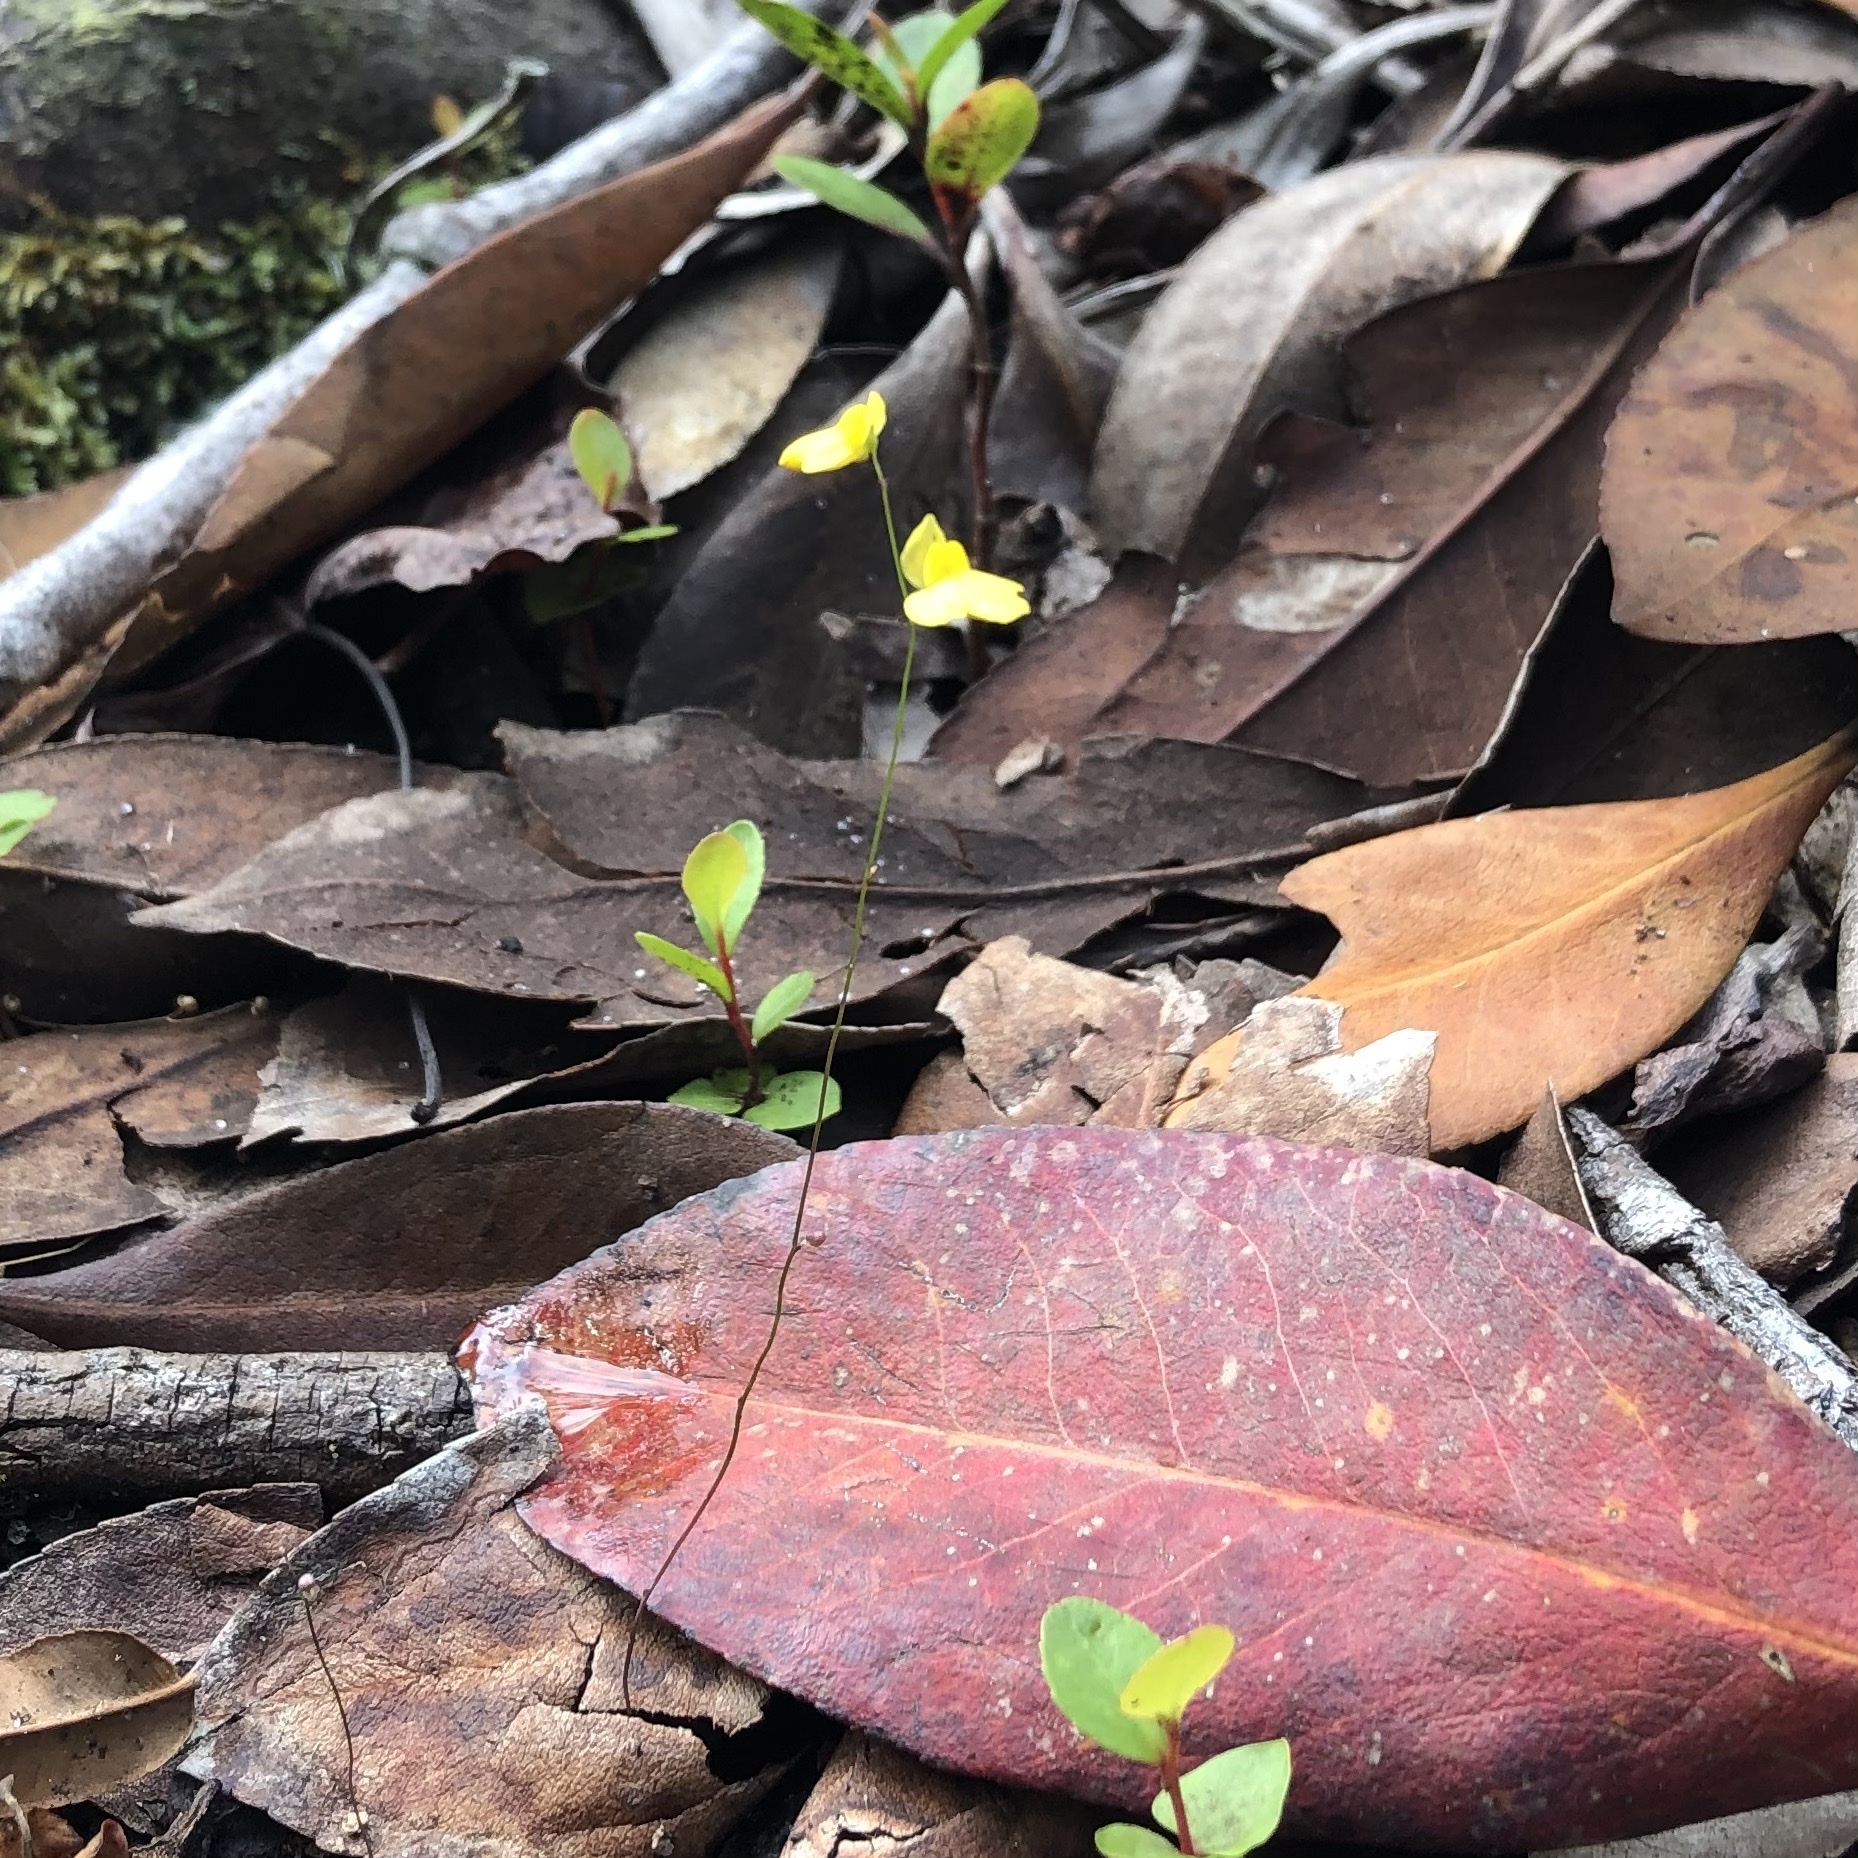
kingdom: Plantae
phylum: Tracheophyta
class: Magnoliopsida
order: Lamiales
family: Lentibulariaceae
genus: Utricularia
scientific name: Utricularia subulata
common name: Tiny bladderwort
